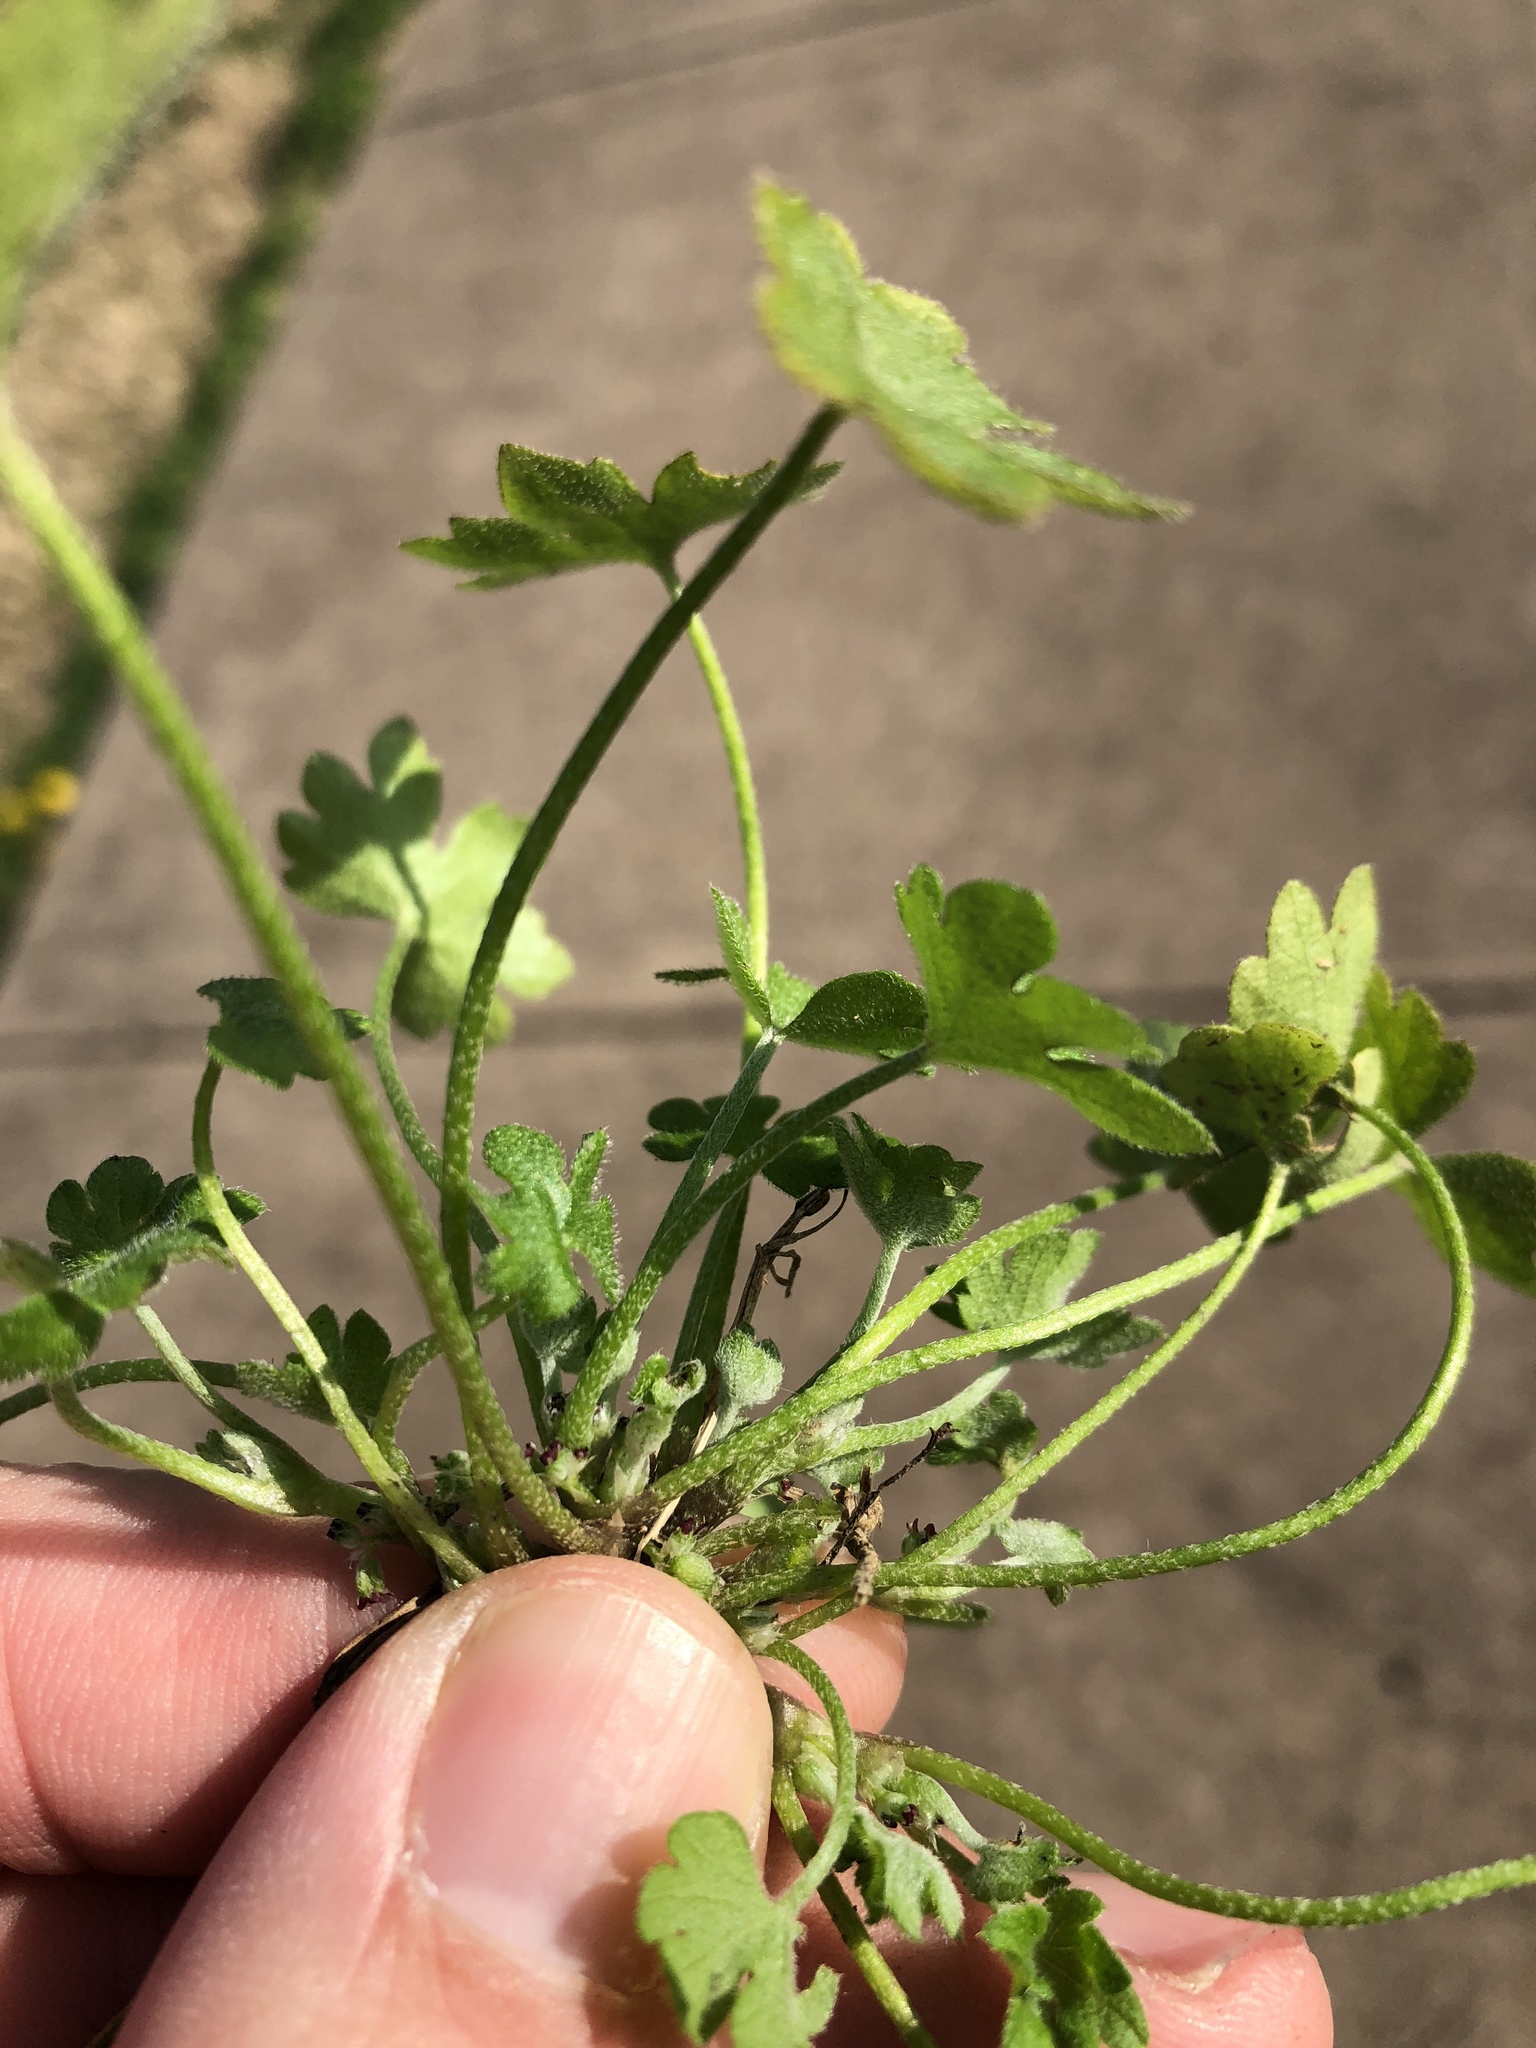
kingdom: Plantae
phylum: Tracheophyta
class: Magnoliopsida
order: Apiales
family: Apiaceae
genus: Bowlesia
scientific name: Bowlesia incana
